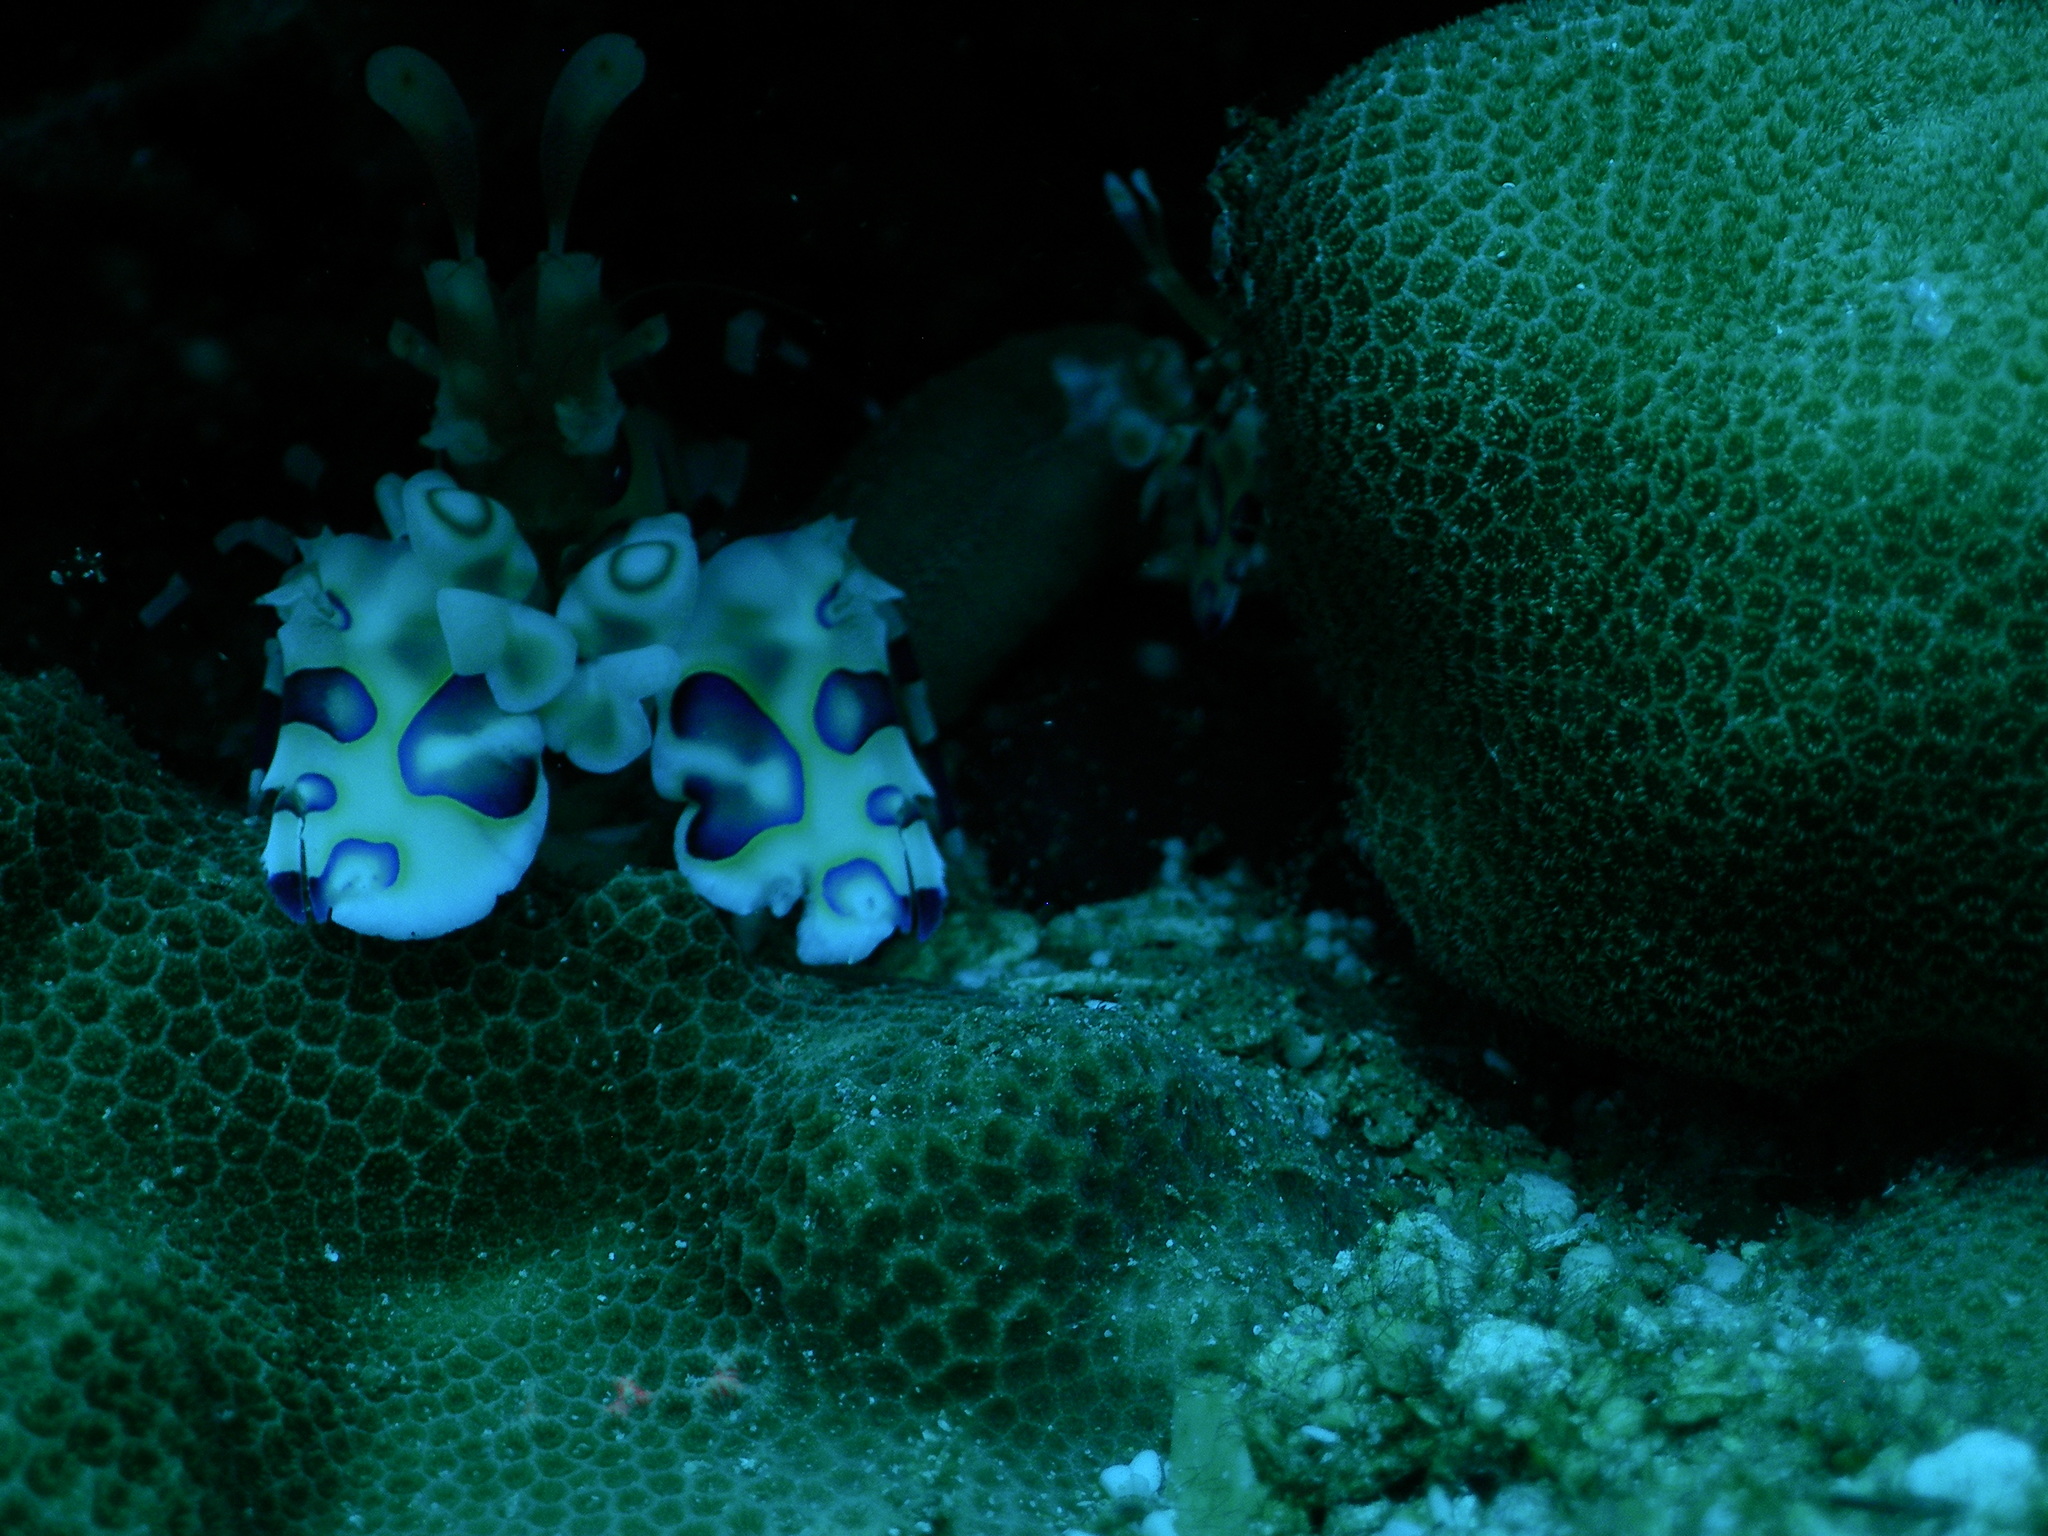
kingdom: Animalia
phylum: Arthropoda
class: Malacostraca
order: Decapoda
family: Palaemonidae
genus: Hymenocera
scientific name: Hymenocera picta
